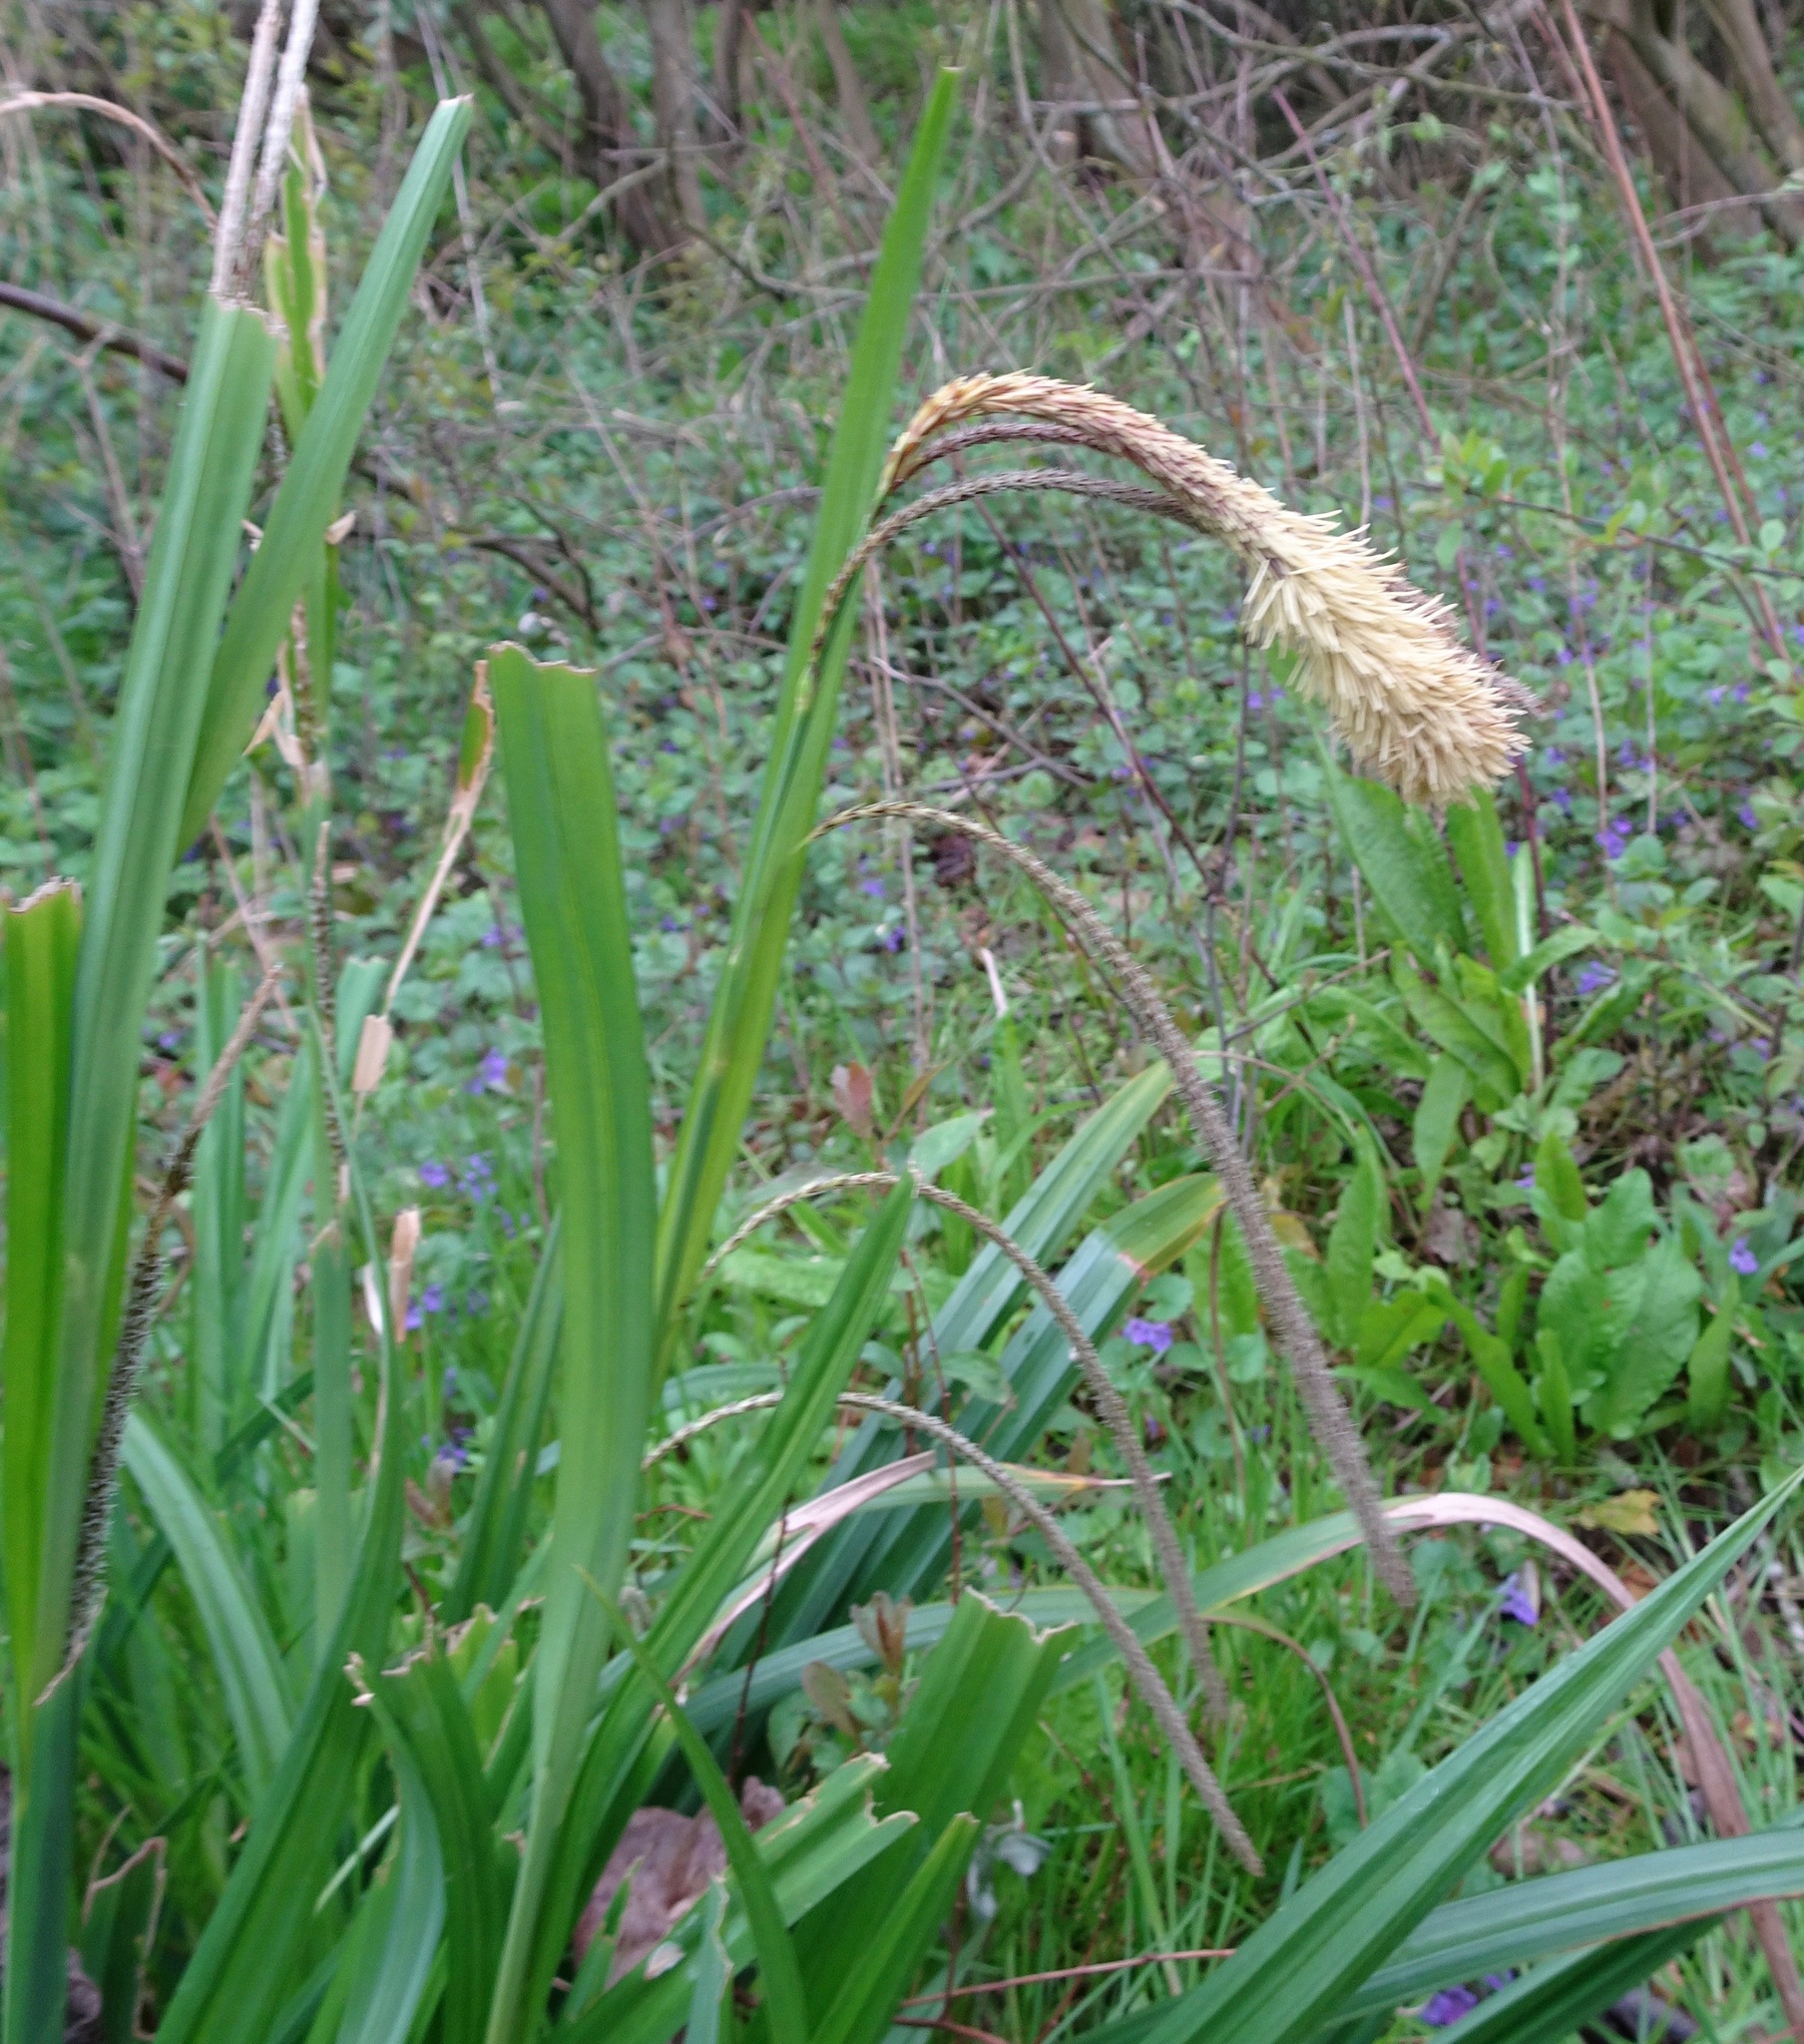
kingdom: Plantae
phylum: Tracheophyta
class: Liliopsida
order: Poales
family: Cyperaceae
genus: Carex
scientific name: Carex pendula
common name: Pendulous sedge
